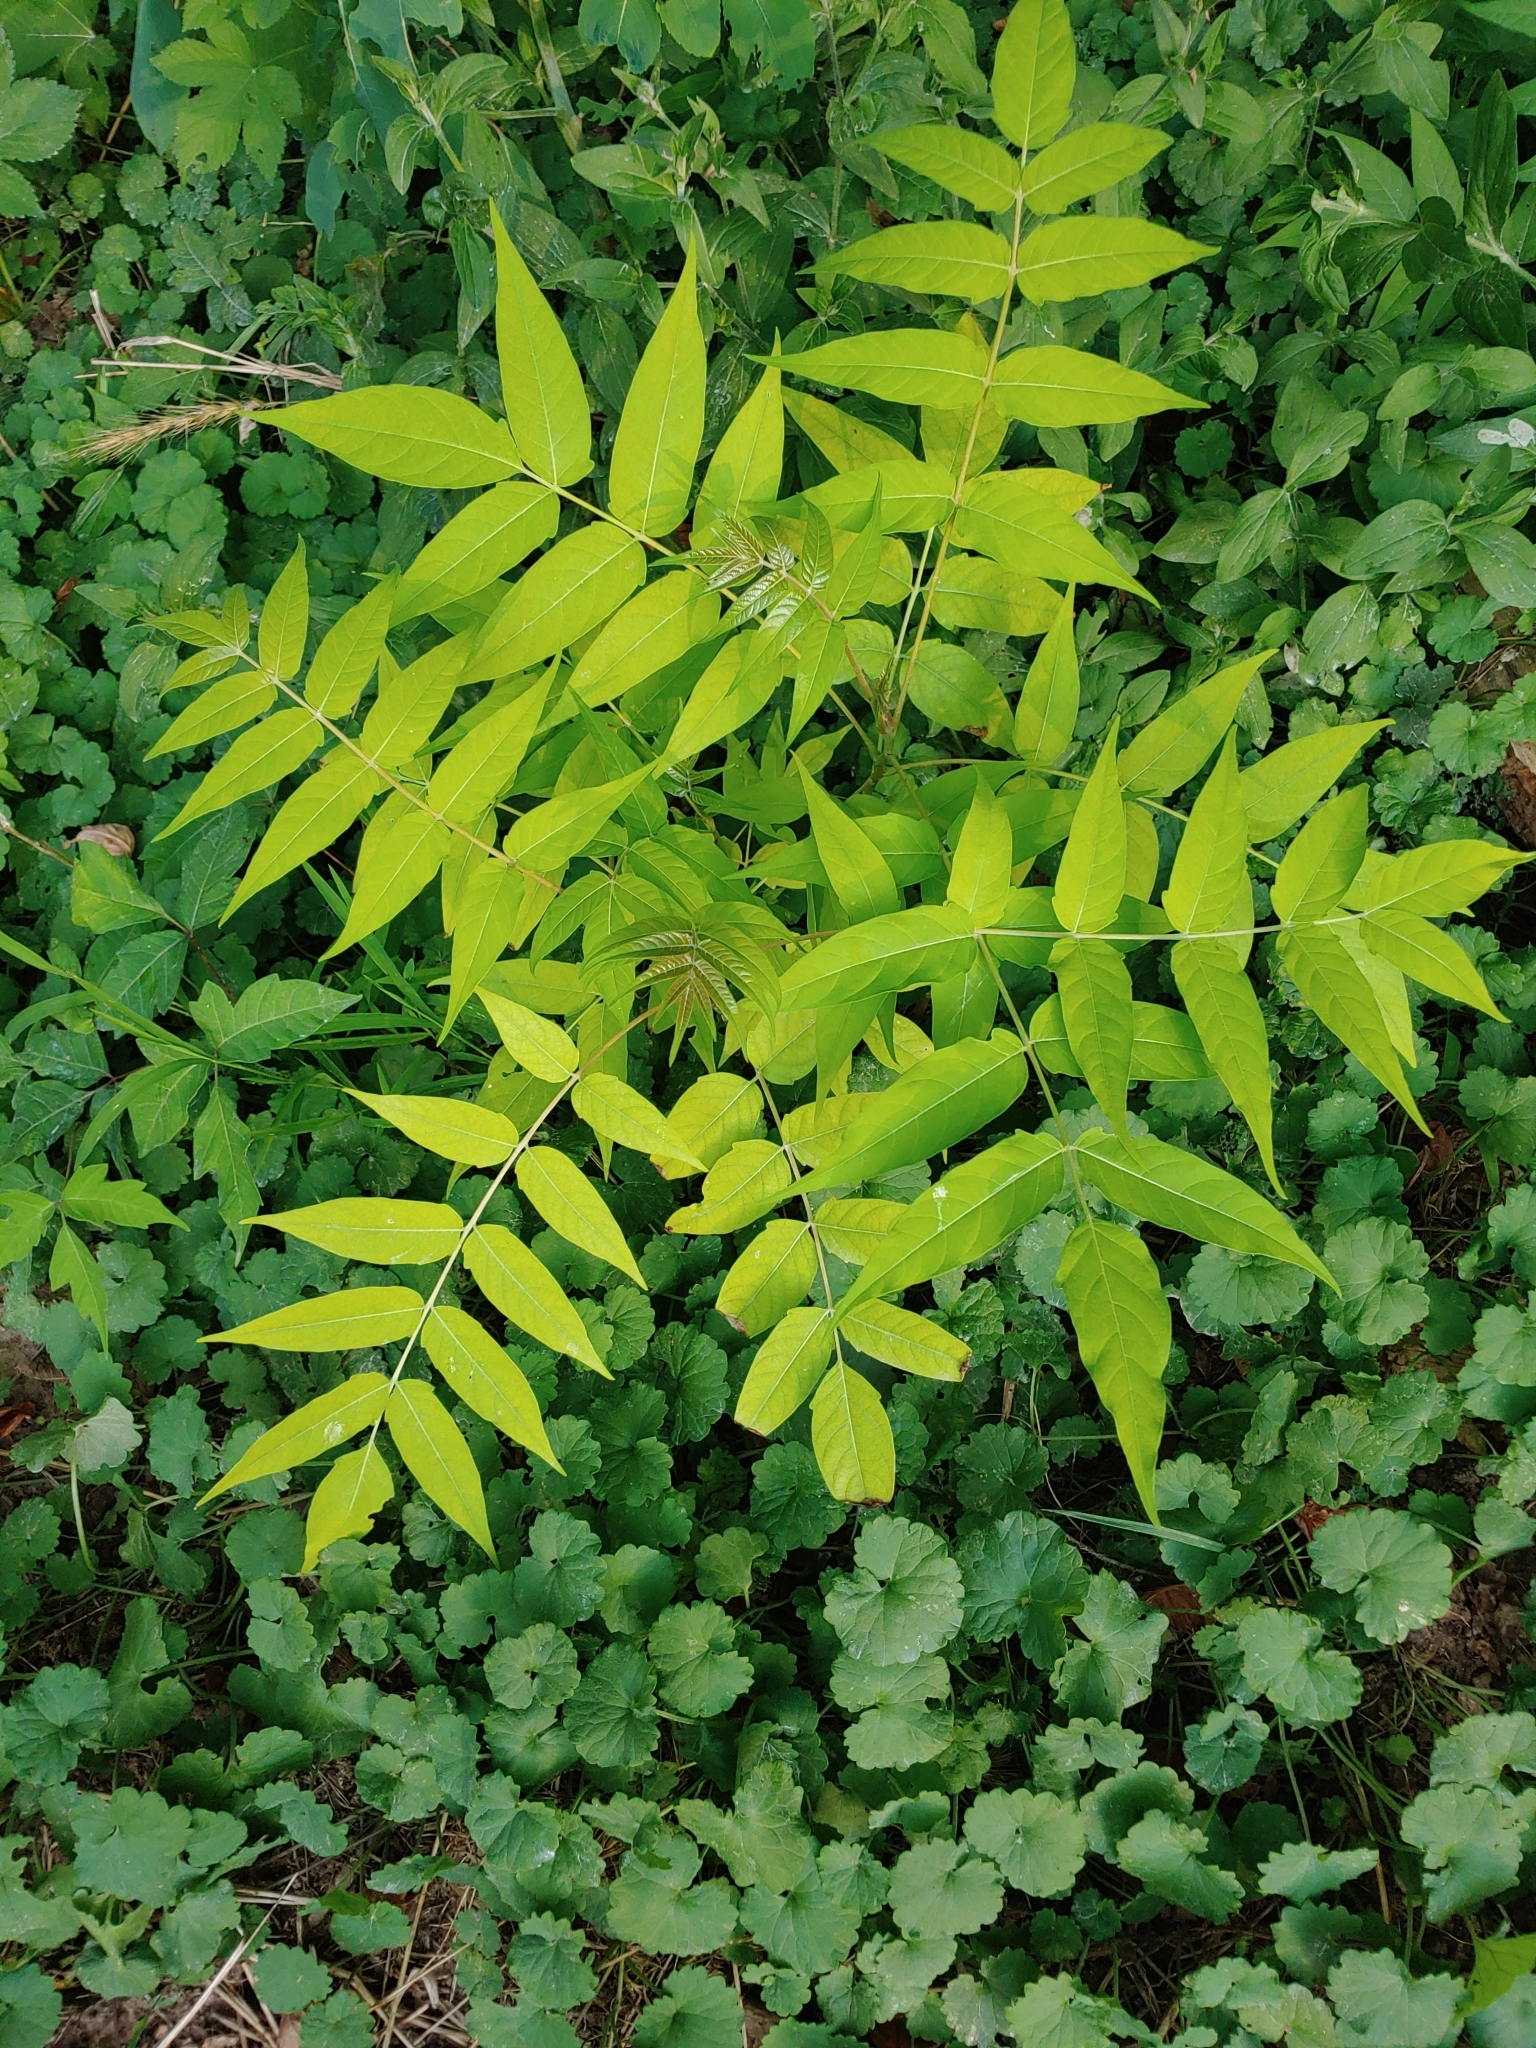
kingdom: Plantae
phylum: Tracheophyta
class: Magnoliopsida
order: Sapindales
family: Simaroubaceae
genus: Ailanthus
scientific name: Ailanthus altissima
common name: Tree-of-heaven
